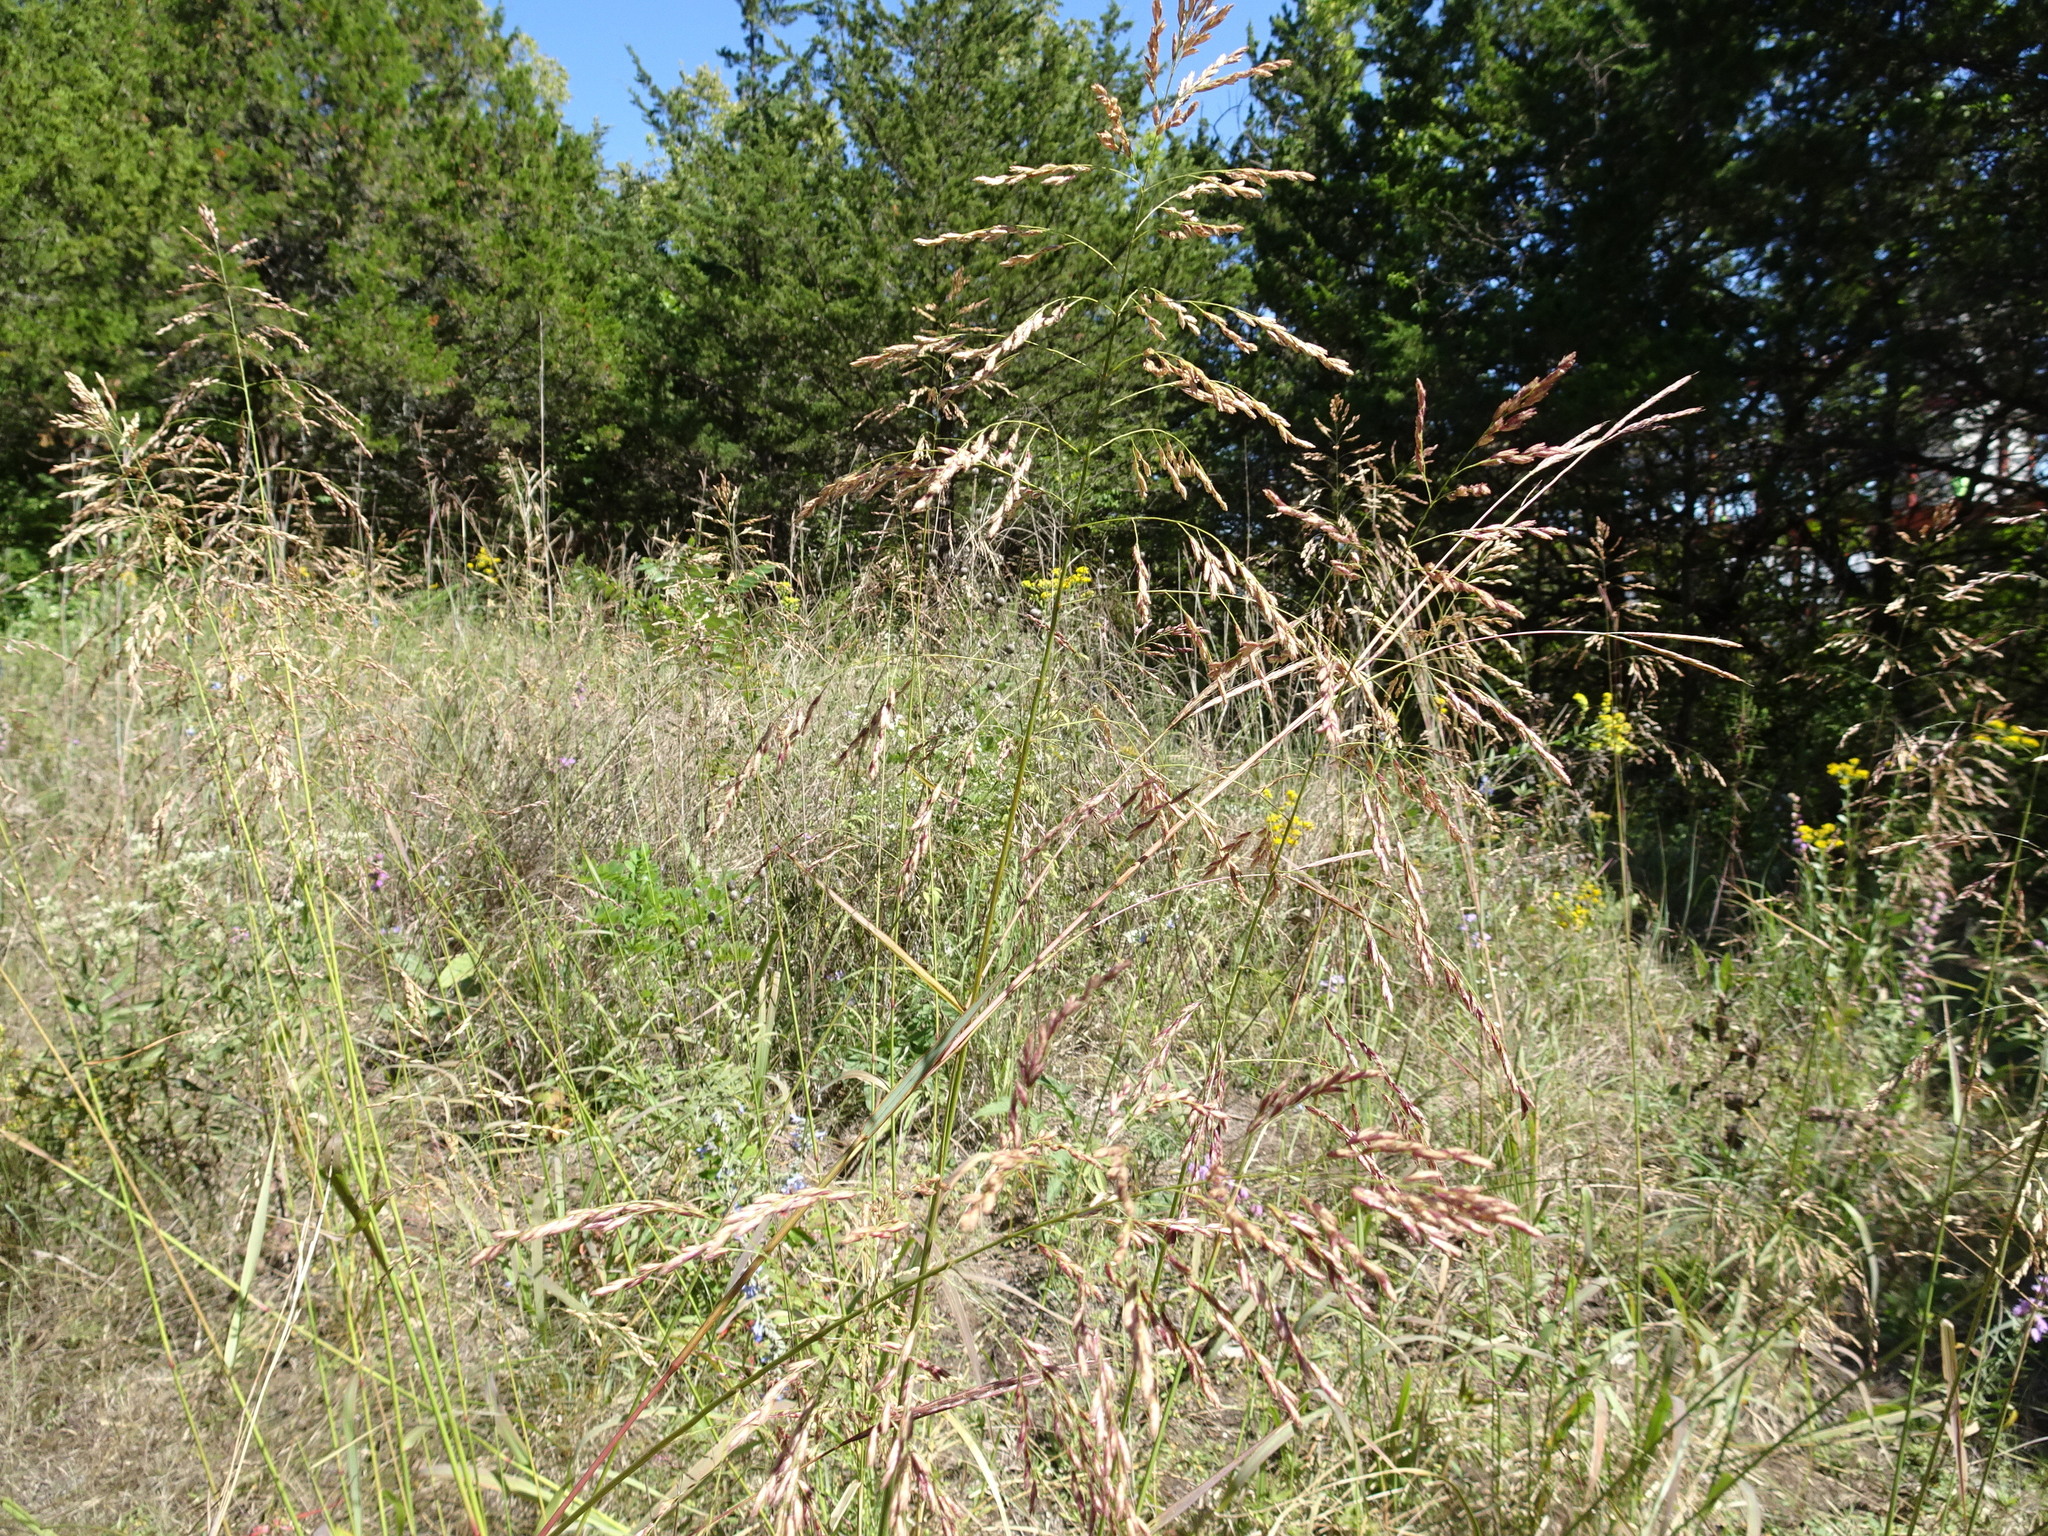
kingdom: Plantae
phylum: Tracheophyta
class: Liliopsida
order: Poales
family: Poaceae
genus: Tridens
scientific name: Tridens flavus
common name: Purpletop
